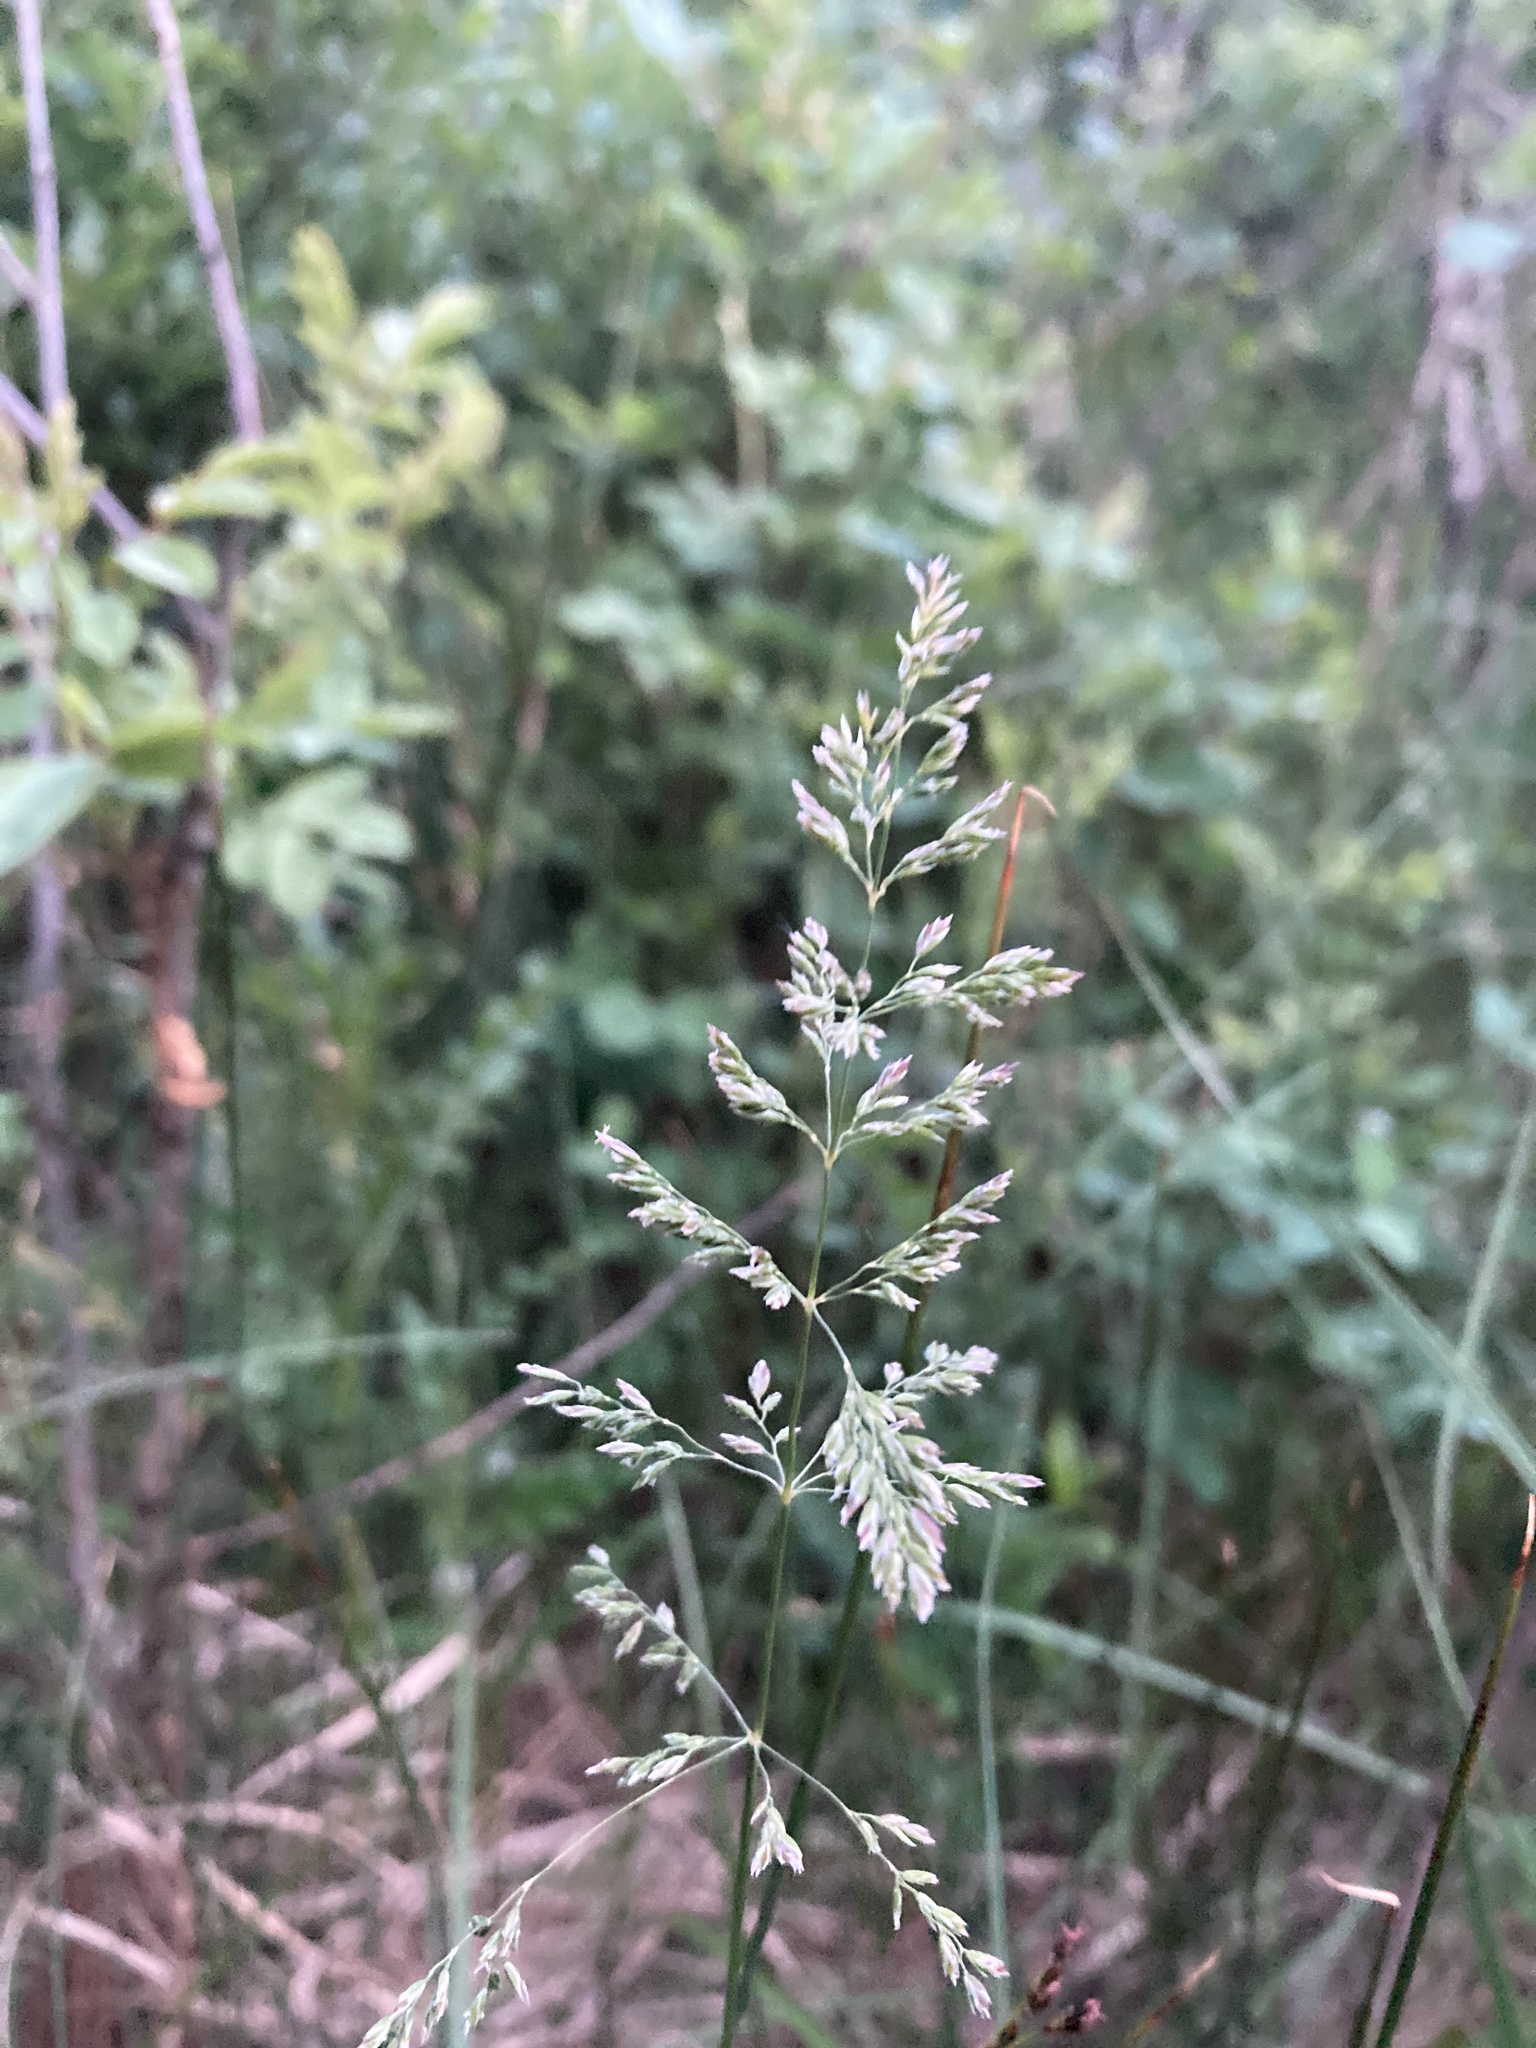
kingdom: Plantae
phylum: Tracheophyta
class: Liliopsida
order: Poales
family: Poaceae
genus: Poa
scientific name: Poa pratensis
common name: Kentucky bluegrass
